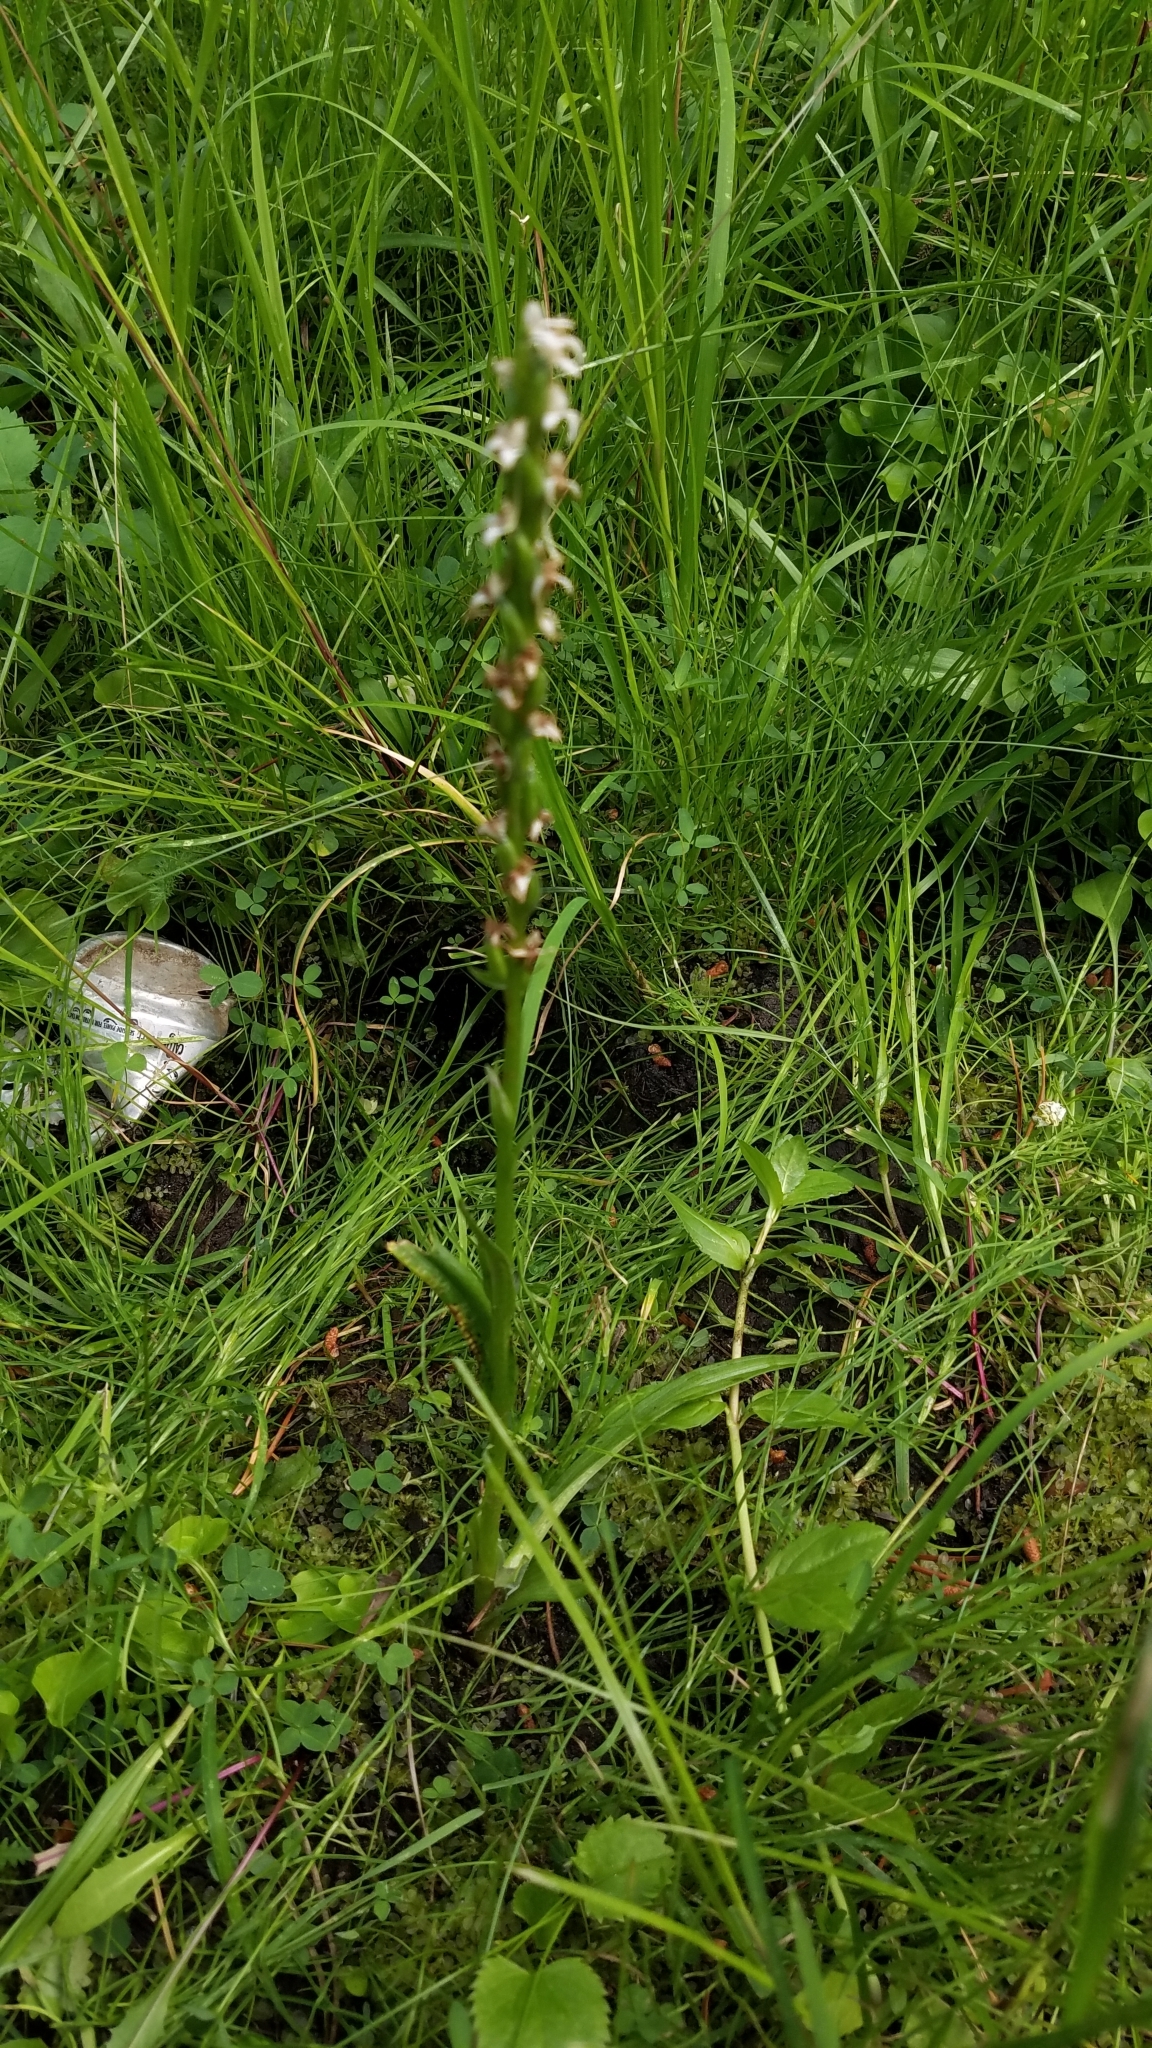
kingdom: Plantae
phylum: Tracheophyta
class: Liliopsida
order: Asparagales
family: Orchidaceae
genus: Platanthera
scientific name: Platanthera dilatata
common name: Bog candles
